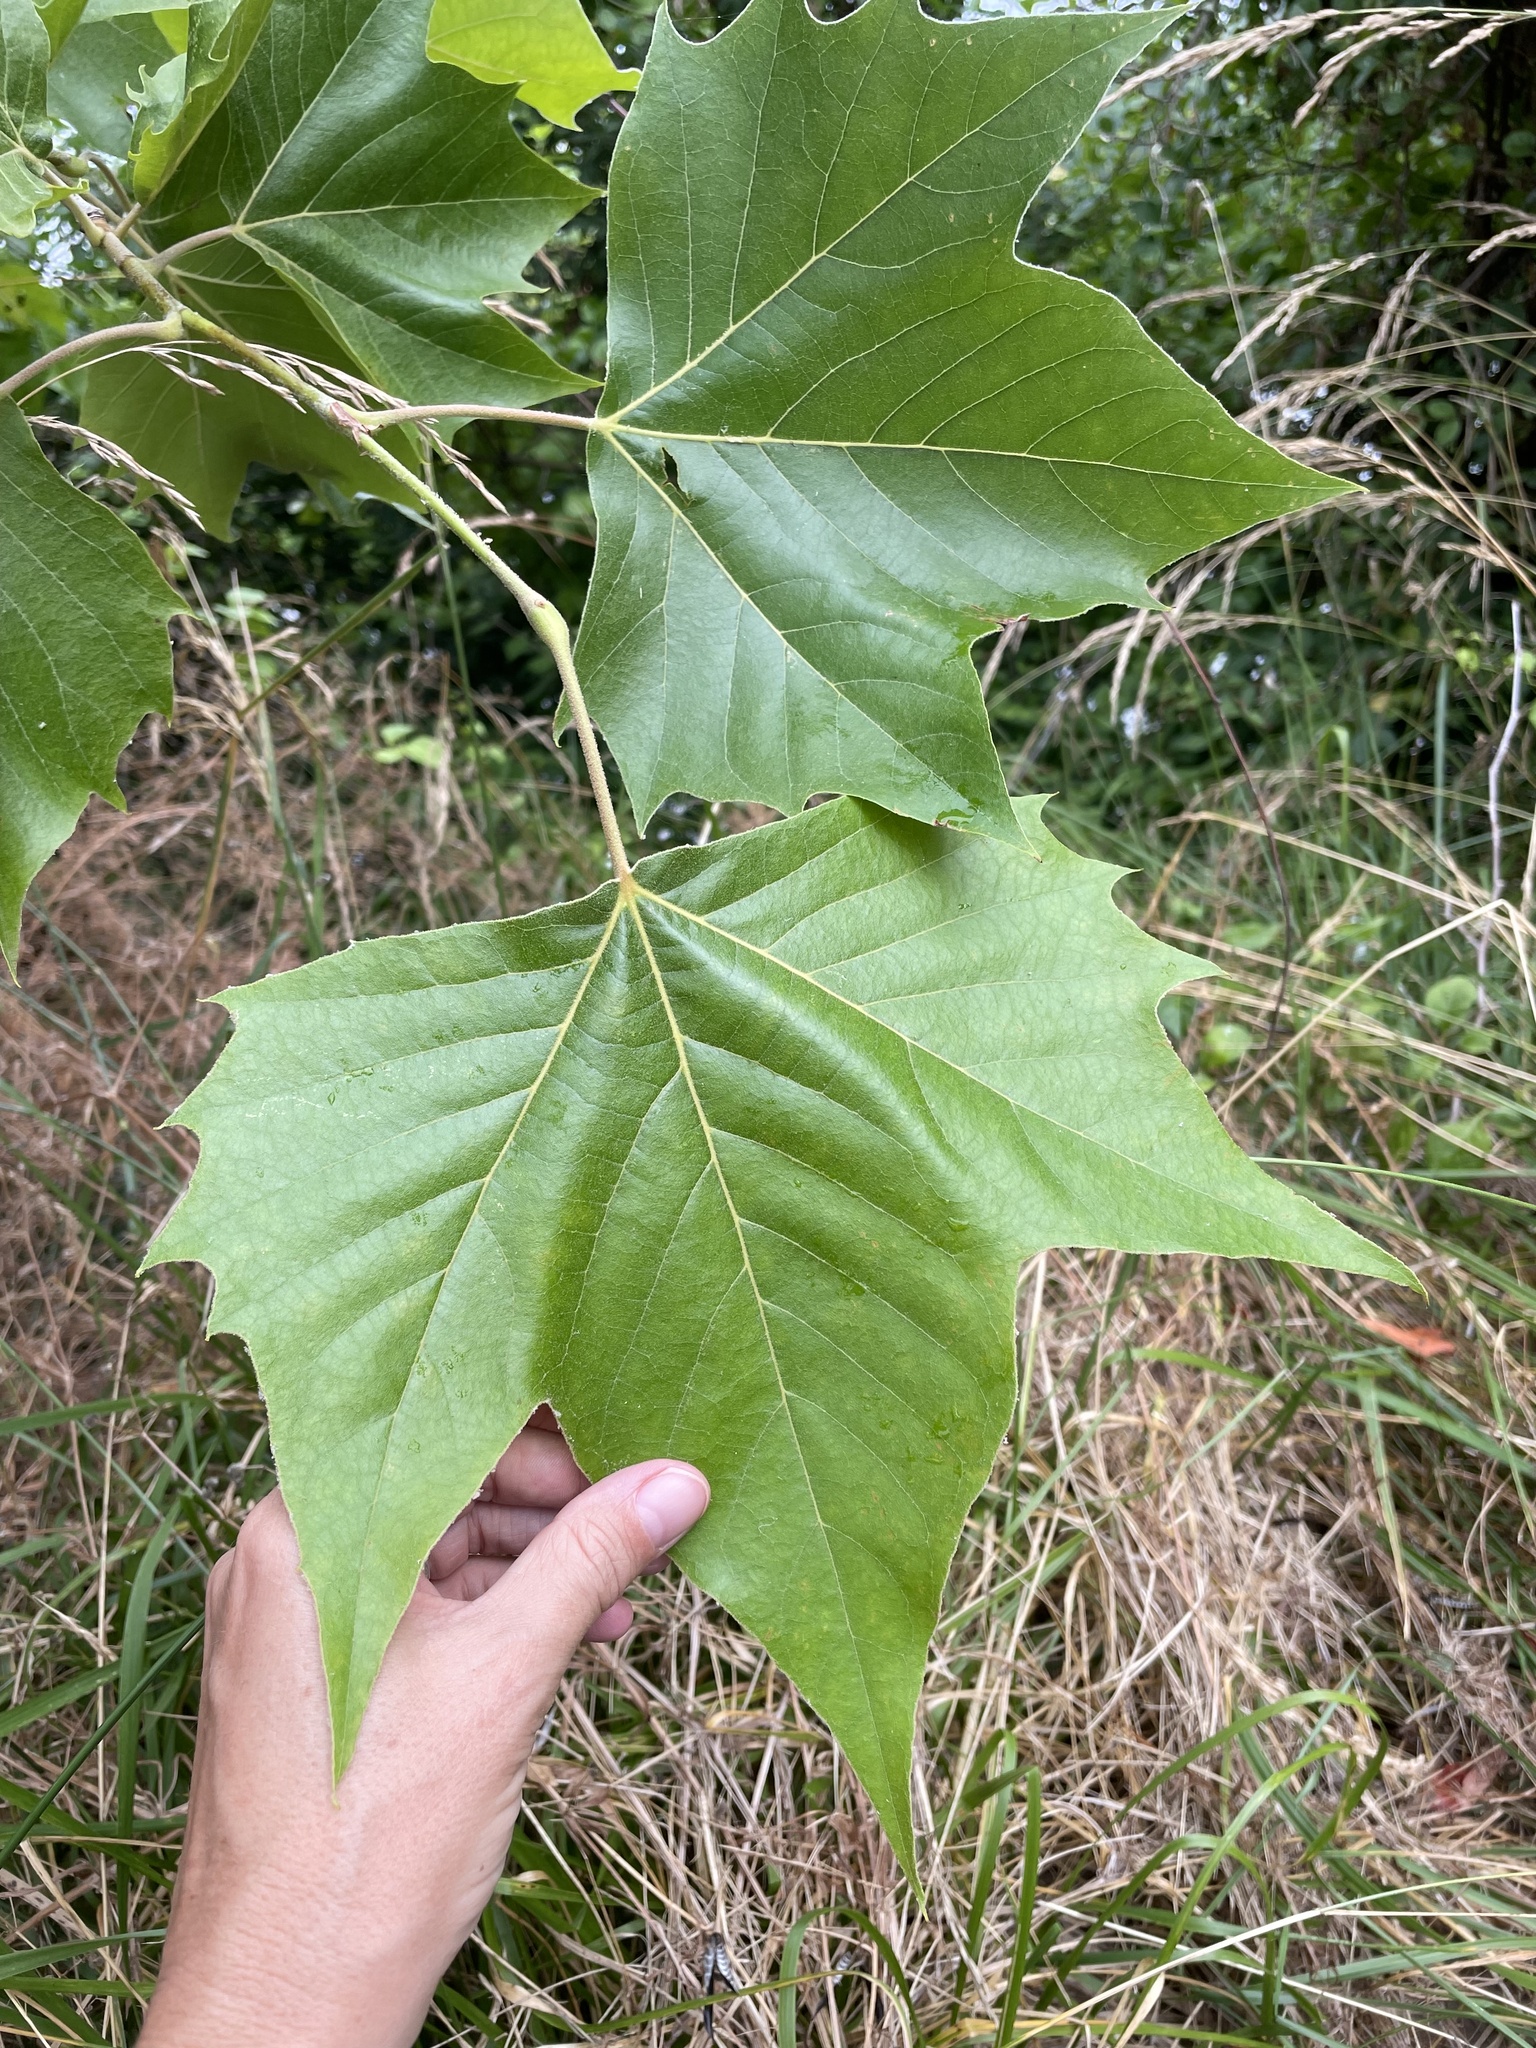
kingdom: Plantae
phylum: Tracheophyta
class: Magnoliopsida
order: Proteales
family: Platanaceae
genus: Platanus
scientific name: Platanus occidentalis
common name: American sycamore
